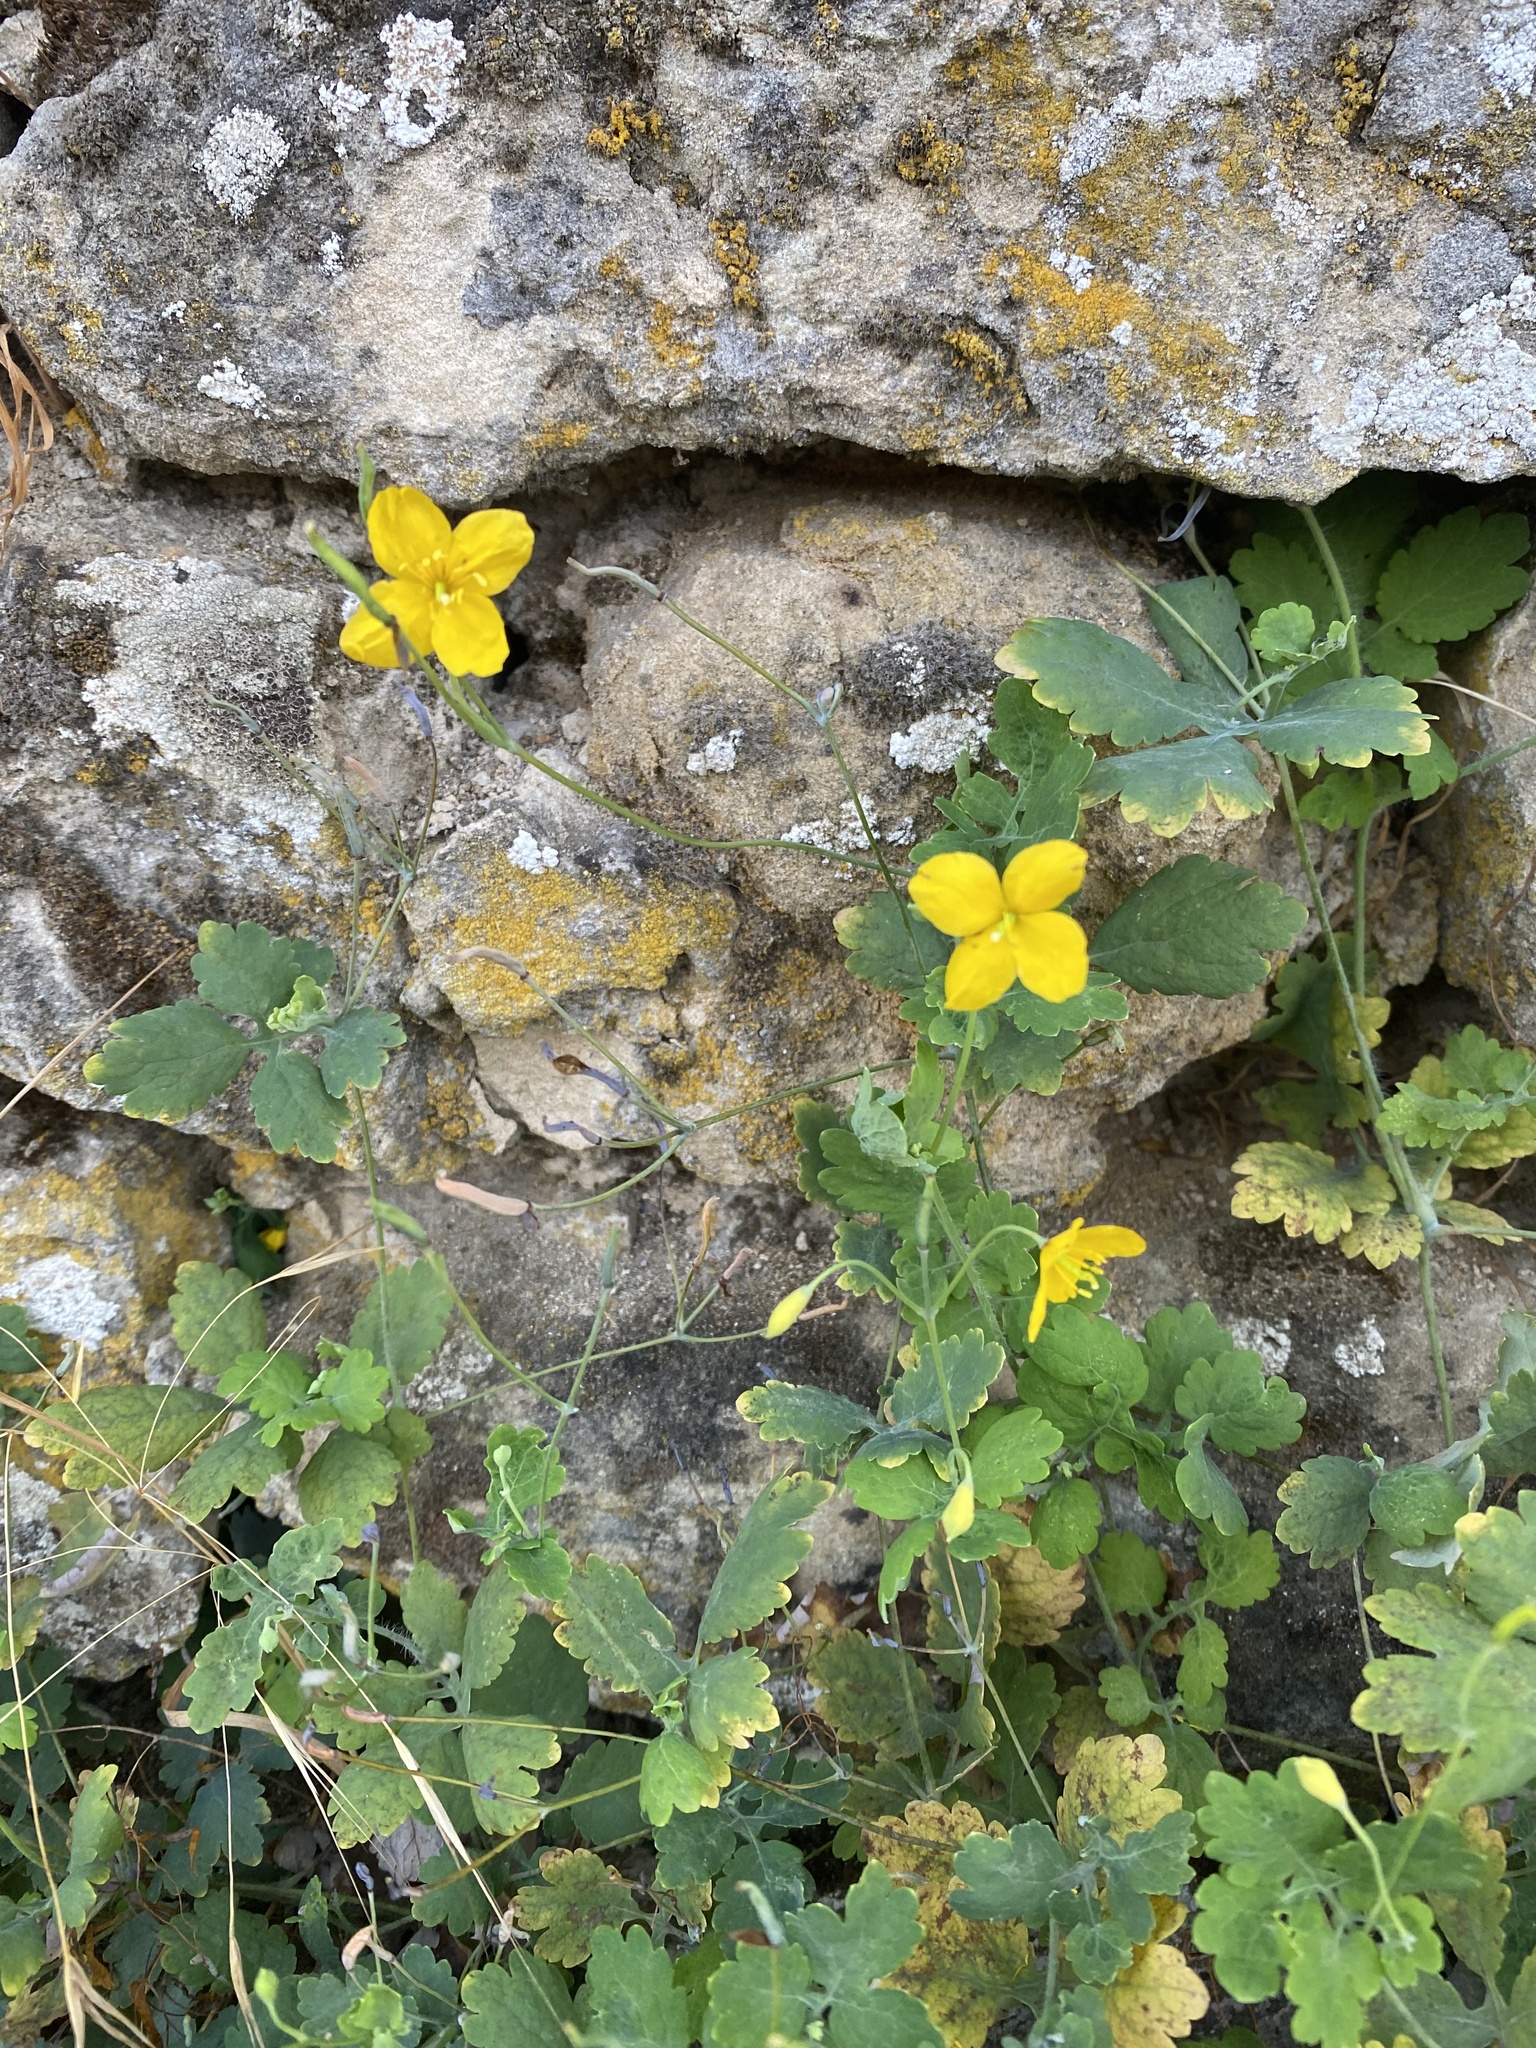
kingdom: Plantae
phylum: Tracheophyta
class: Magnoliopsida
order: Ranunculales
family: Papaveraceae
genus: Chelidonium
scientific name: Chelidonium majus
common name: Greater celandine
